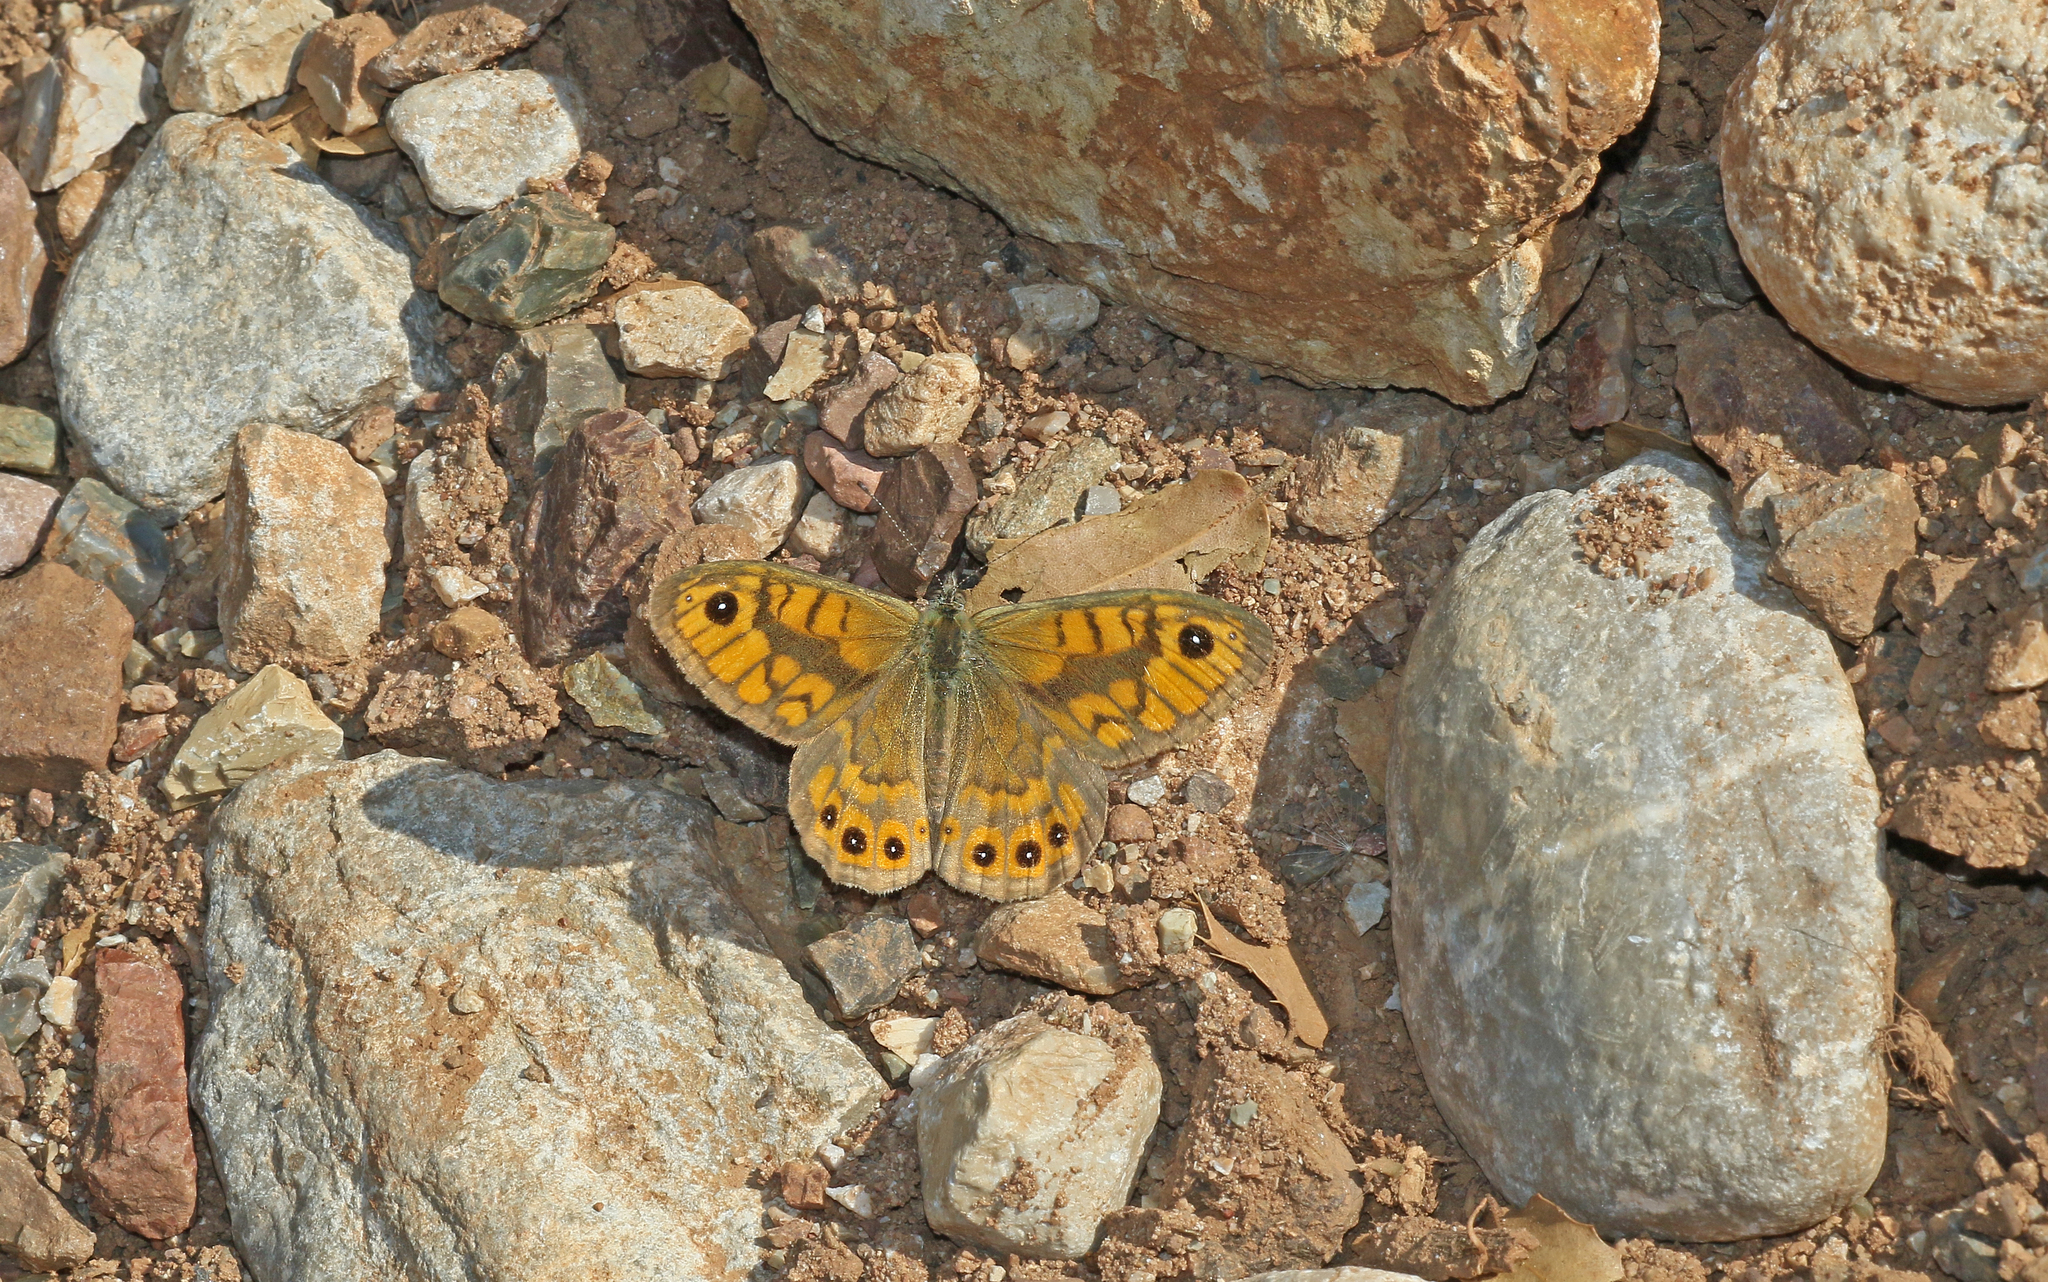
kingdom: Animalia
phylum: Arthropoda
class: Insecta
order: Lepidoptera
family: Nymphalidae
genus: Pararge
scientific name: Pararge Lasiommata megera
